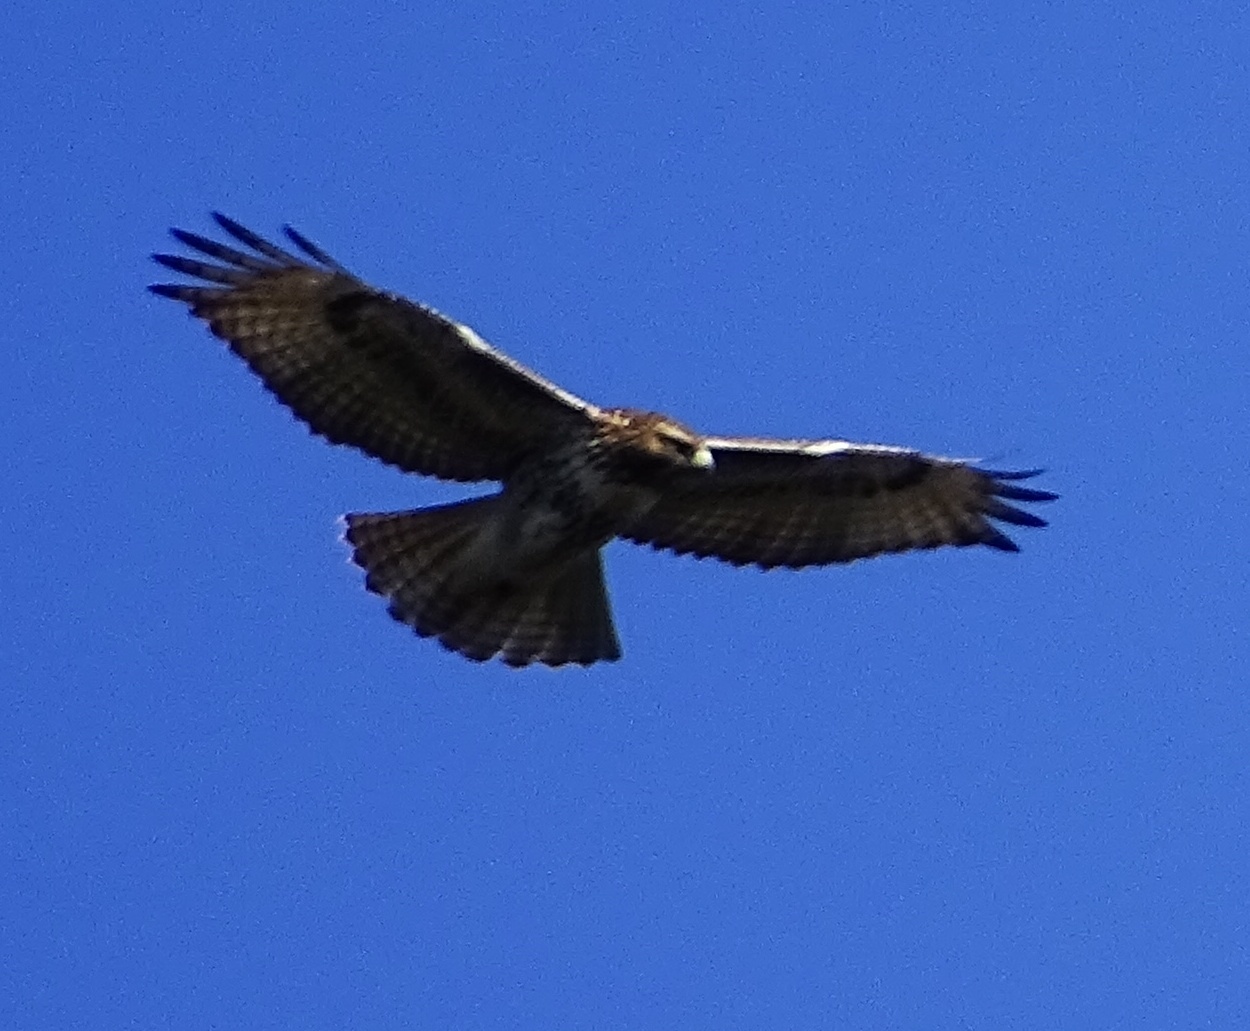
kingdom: Animalia
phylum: Chordata
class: Aves
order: Accipitriformes
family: Accipitridae
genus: Buteo
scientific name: Buteo jamaicensis
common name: Red-tailed hawk
